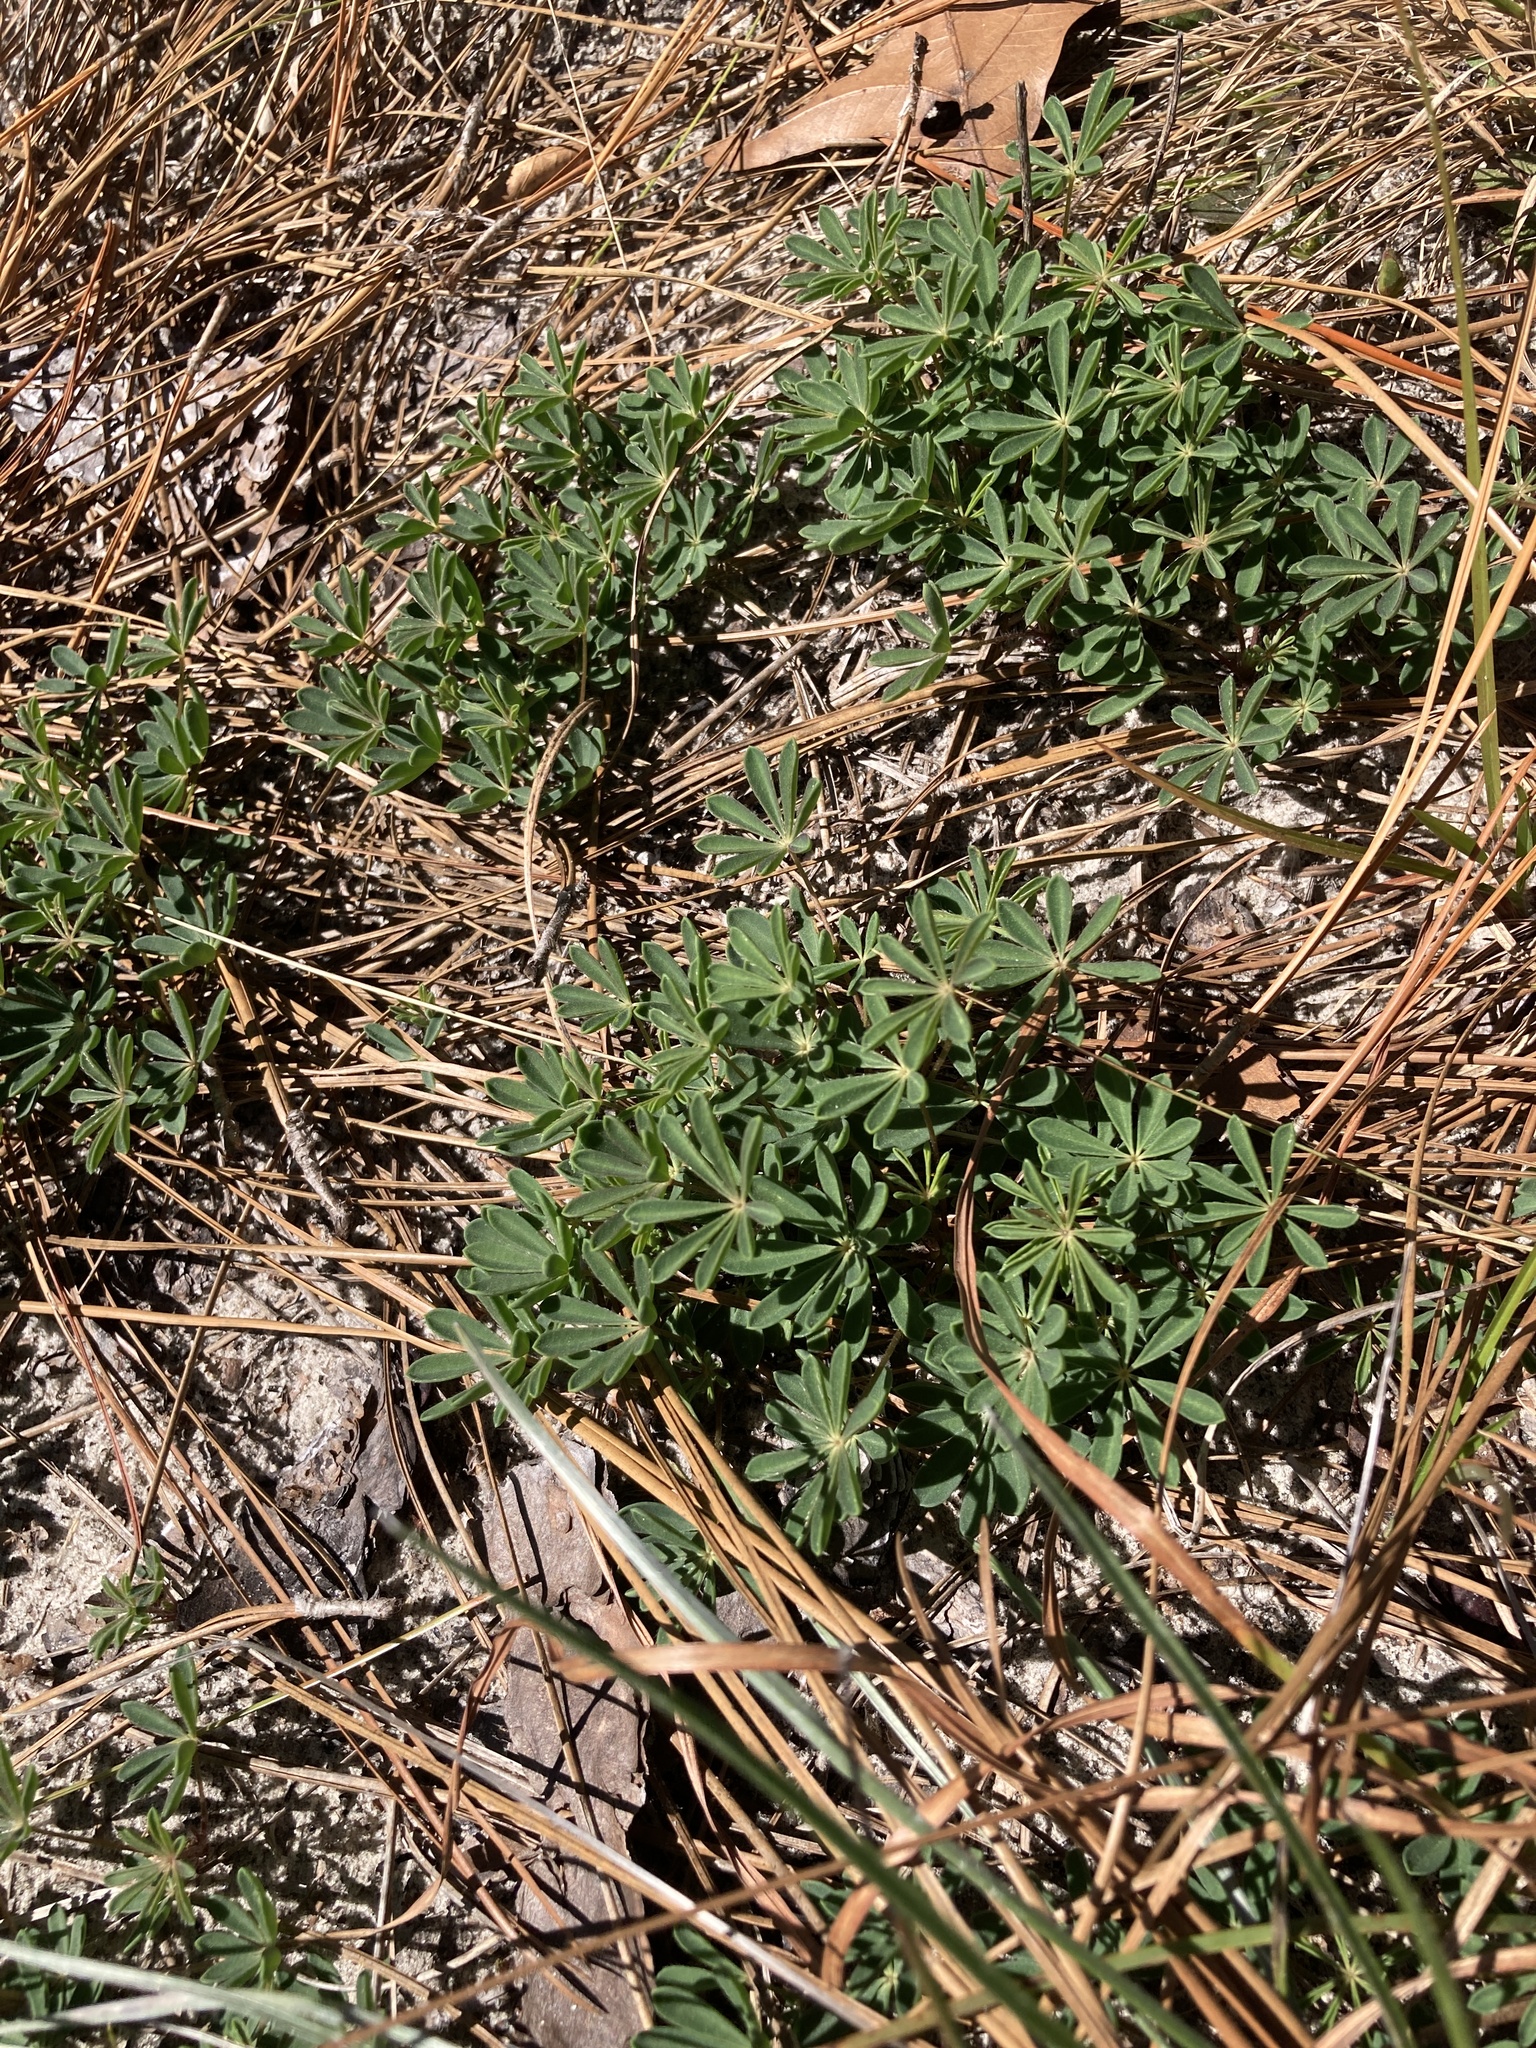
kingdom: Plantae
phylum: Tracheophyta
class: Magnoliopsida
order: Fabales
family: Fabaceae
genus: Lupinus
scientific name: Lupinus perennis
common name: Sundial lupine
